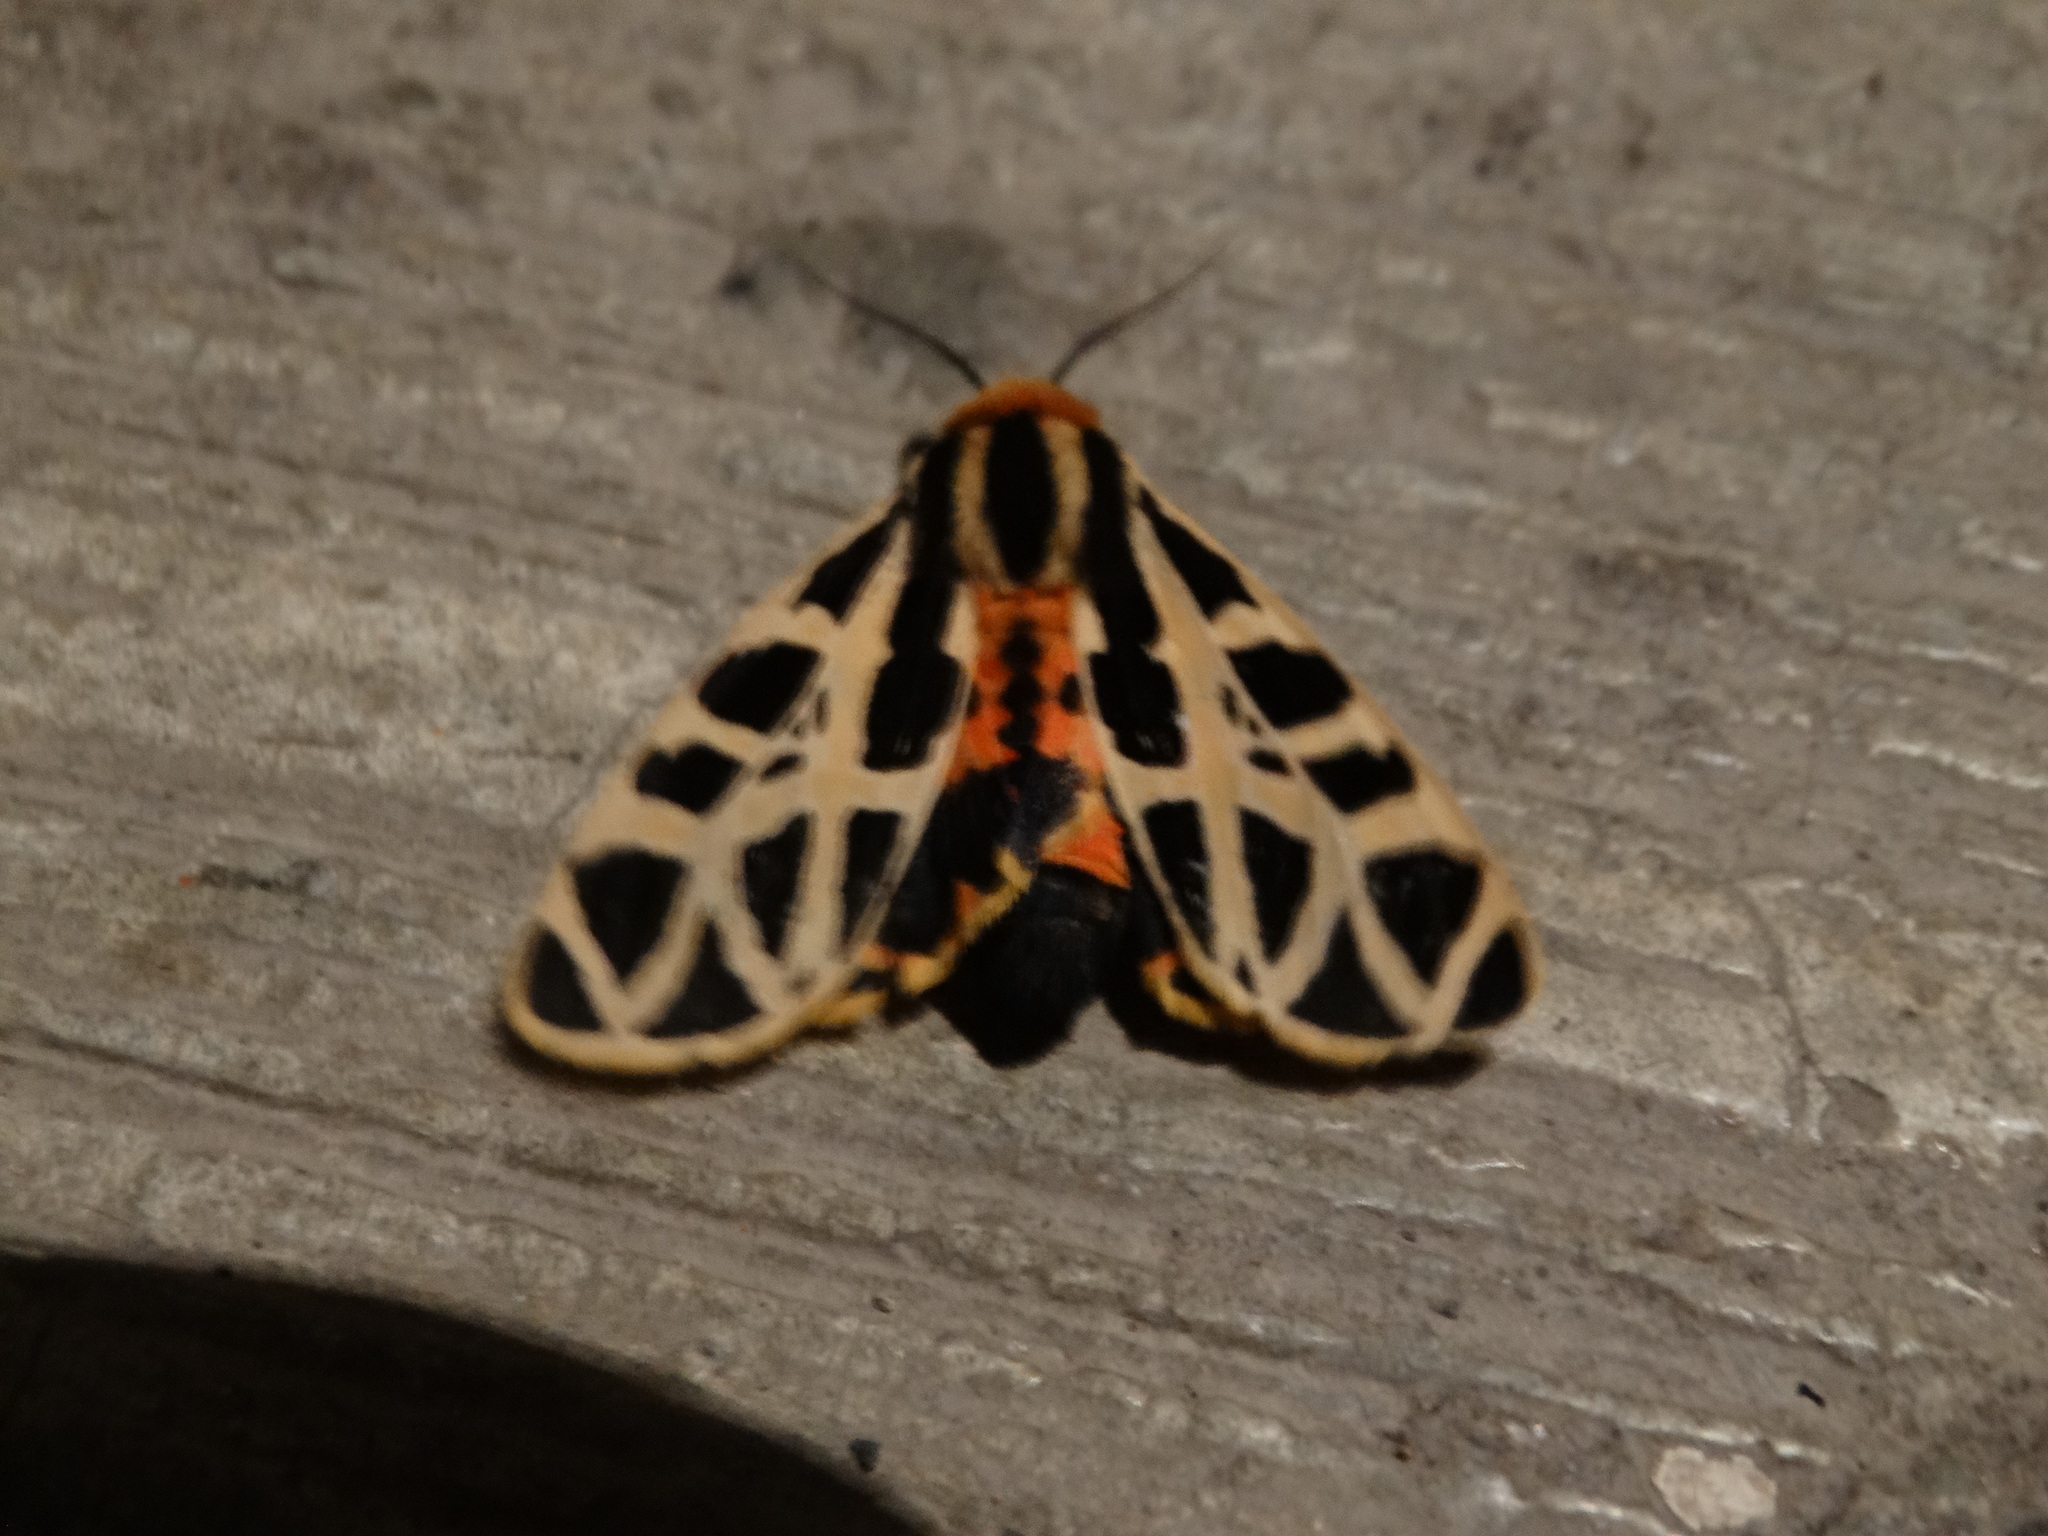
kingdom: Animalia
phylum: Arthropoda
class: Insecta
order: Lepidoptera
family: Erebidae
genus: Apantesis
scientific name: Apantesis
